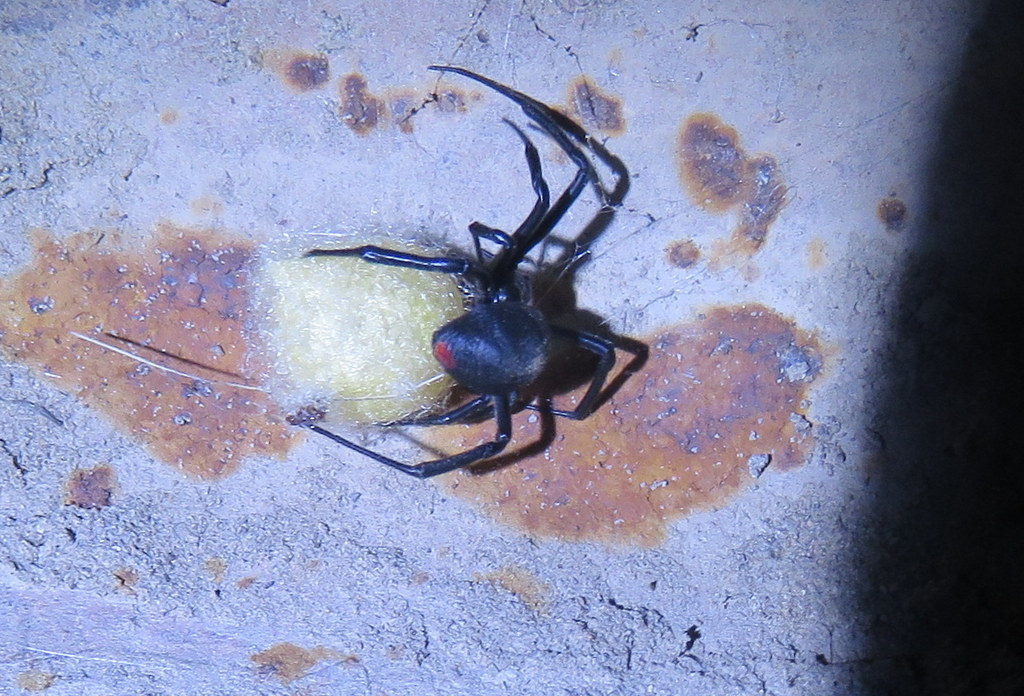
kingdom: Animalia
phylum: Arthropoda
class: Arachnida
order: Araneae
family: Theridiidae
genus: Latrodectus
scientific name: Latrodectus mirabilis
